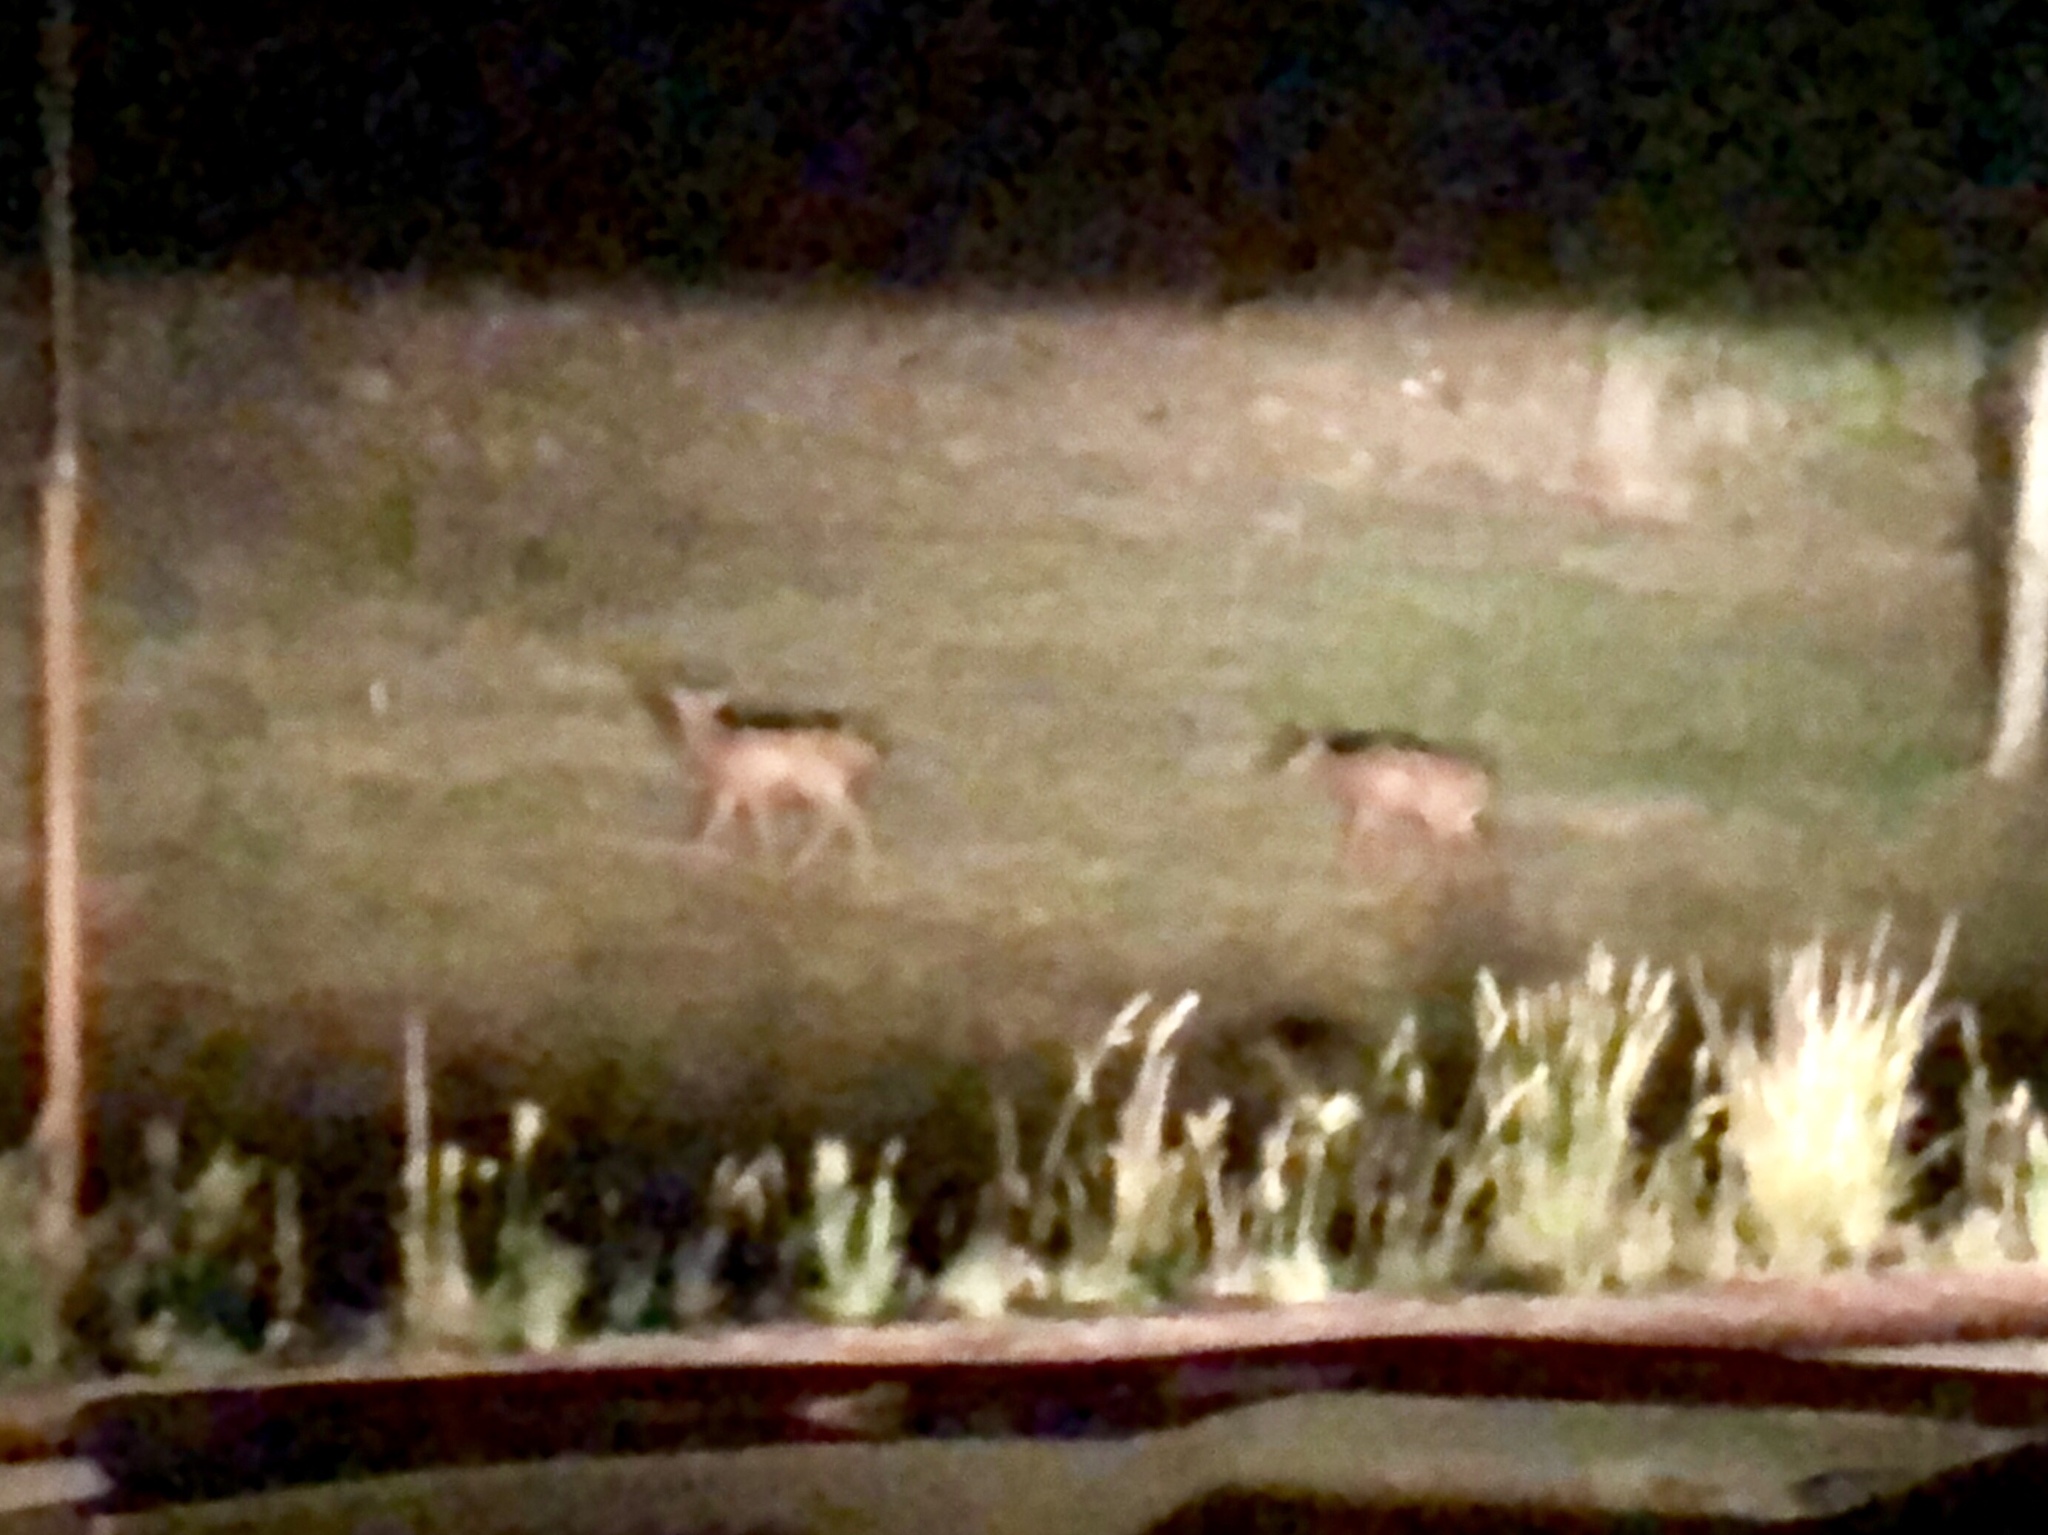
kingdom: Animalia
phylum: Chordata
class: Mammalia
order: Artiodactyla
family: Cervidae
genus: Cervus
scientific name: Cervus elaphus
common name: Red deer
